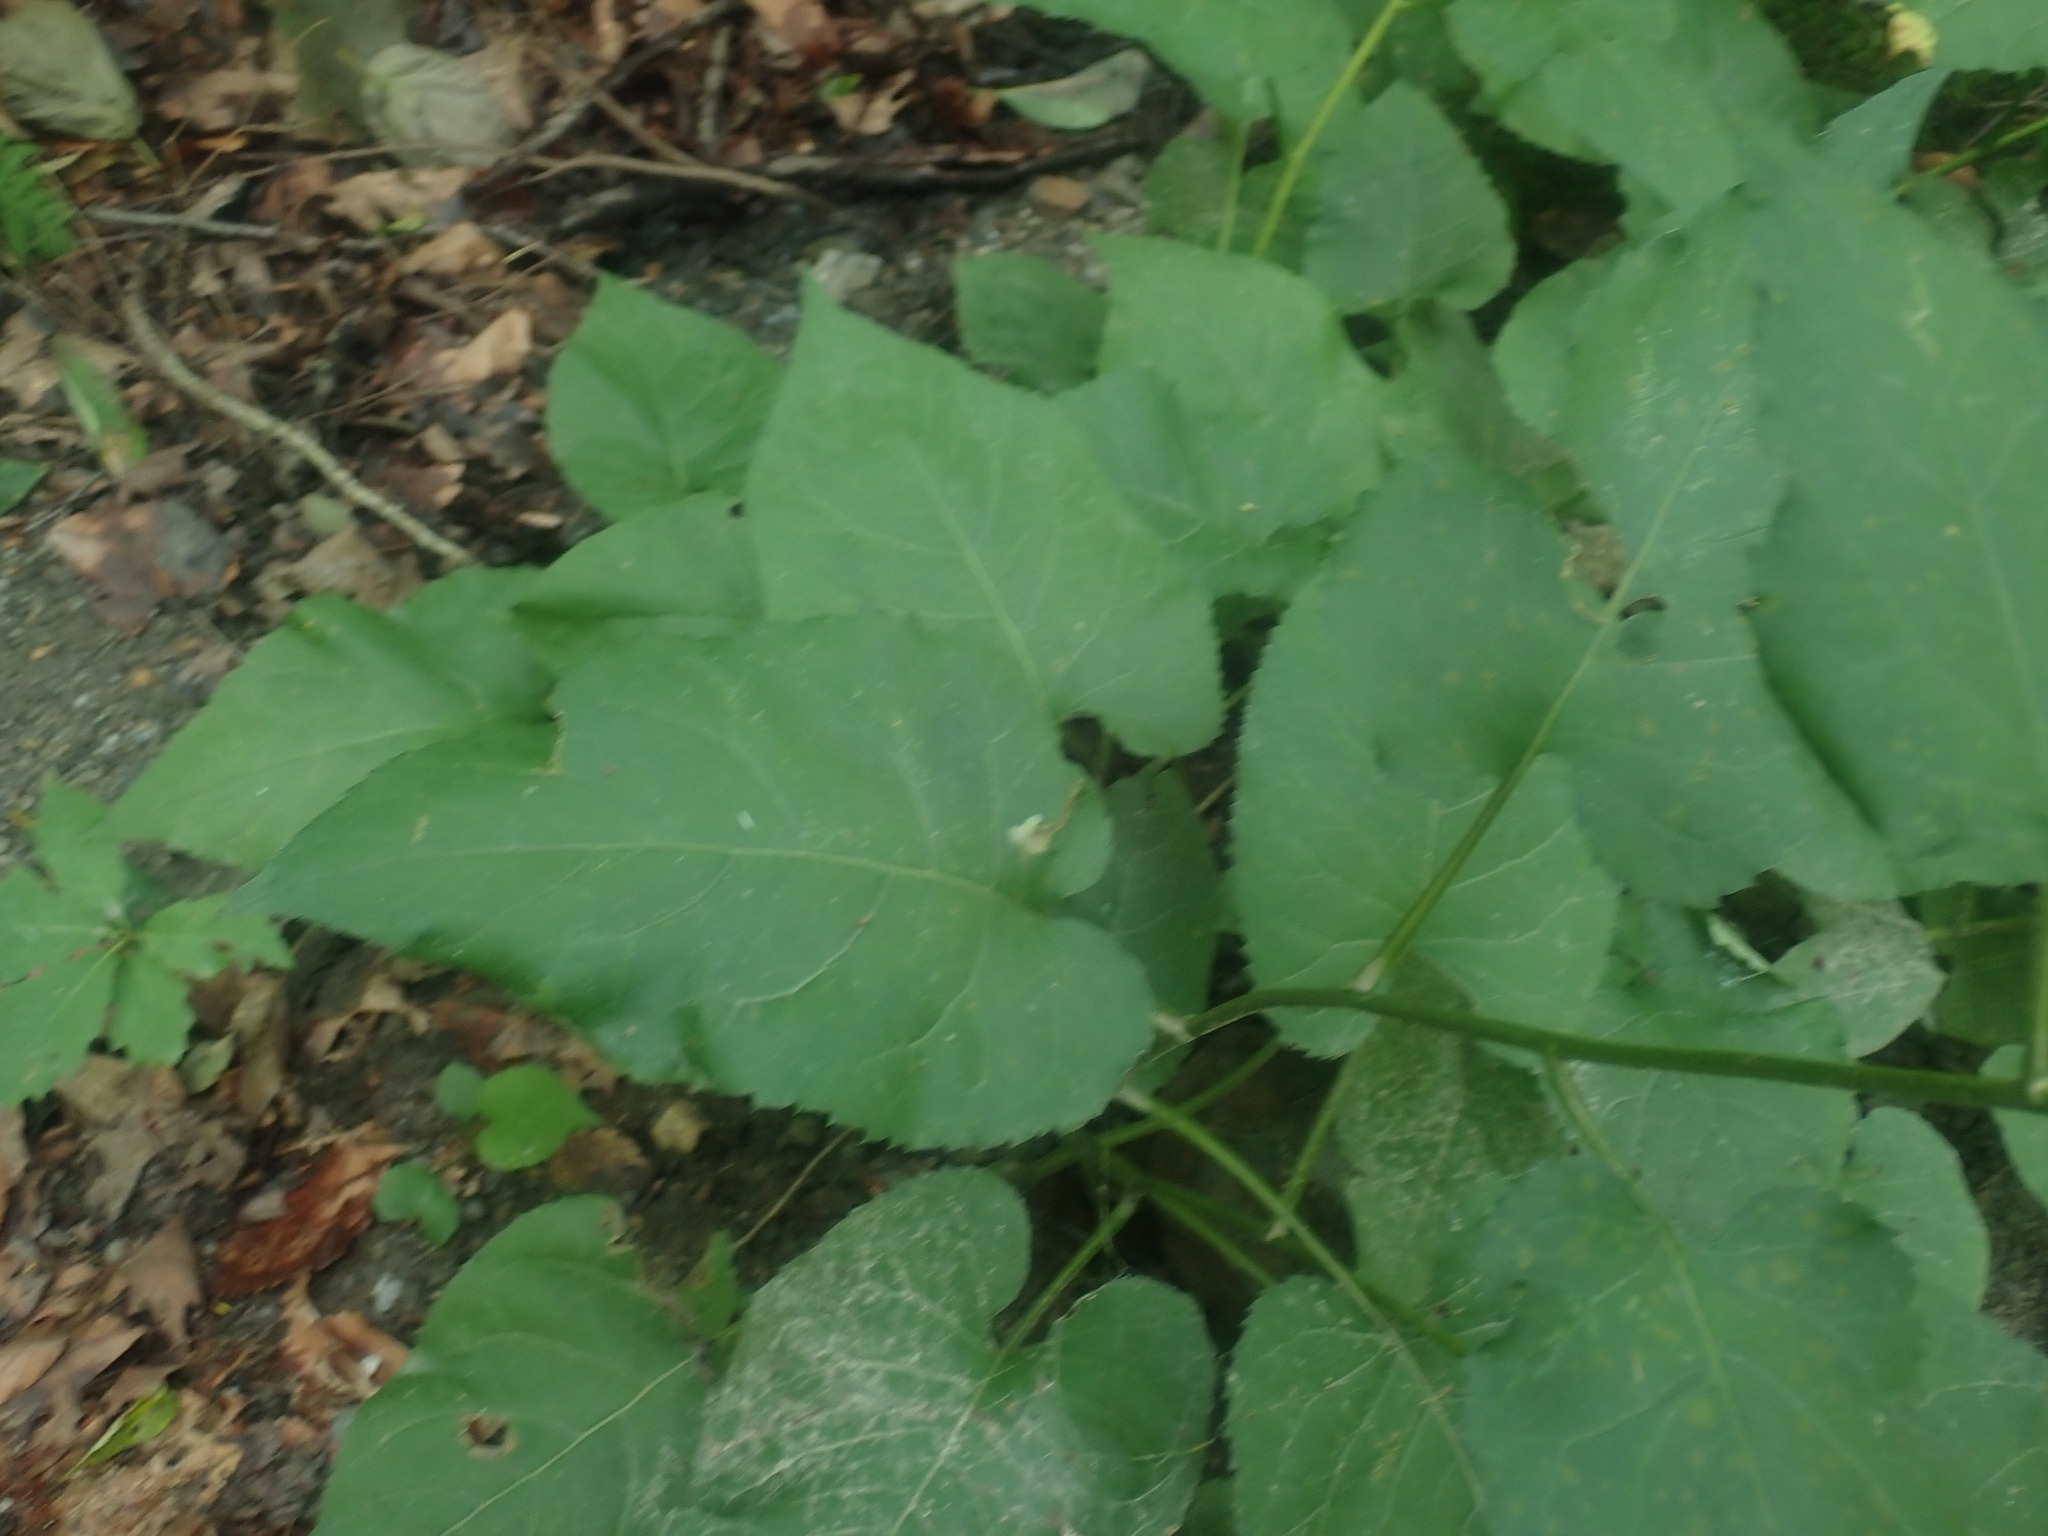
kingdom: Plantae
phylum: Tracheophyta
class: Magnoliopsida
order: Asterales
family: Asteraceae
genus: Eurybia
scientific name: Eurybia macrophylla
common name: Big-leaved aster
